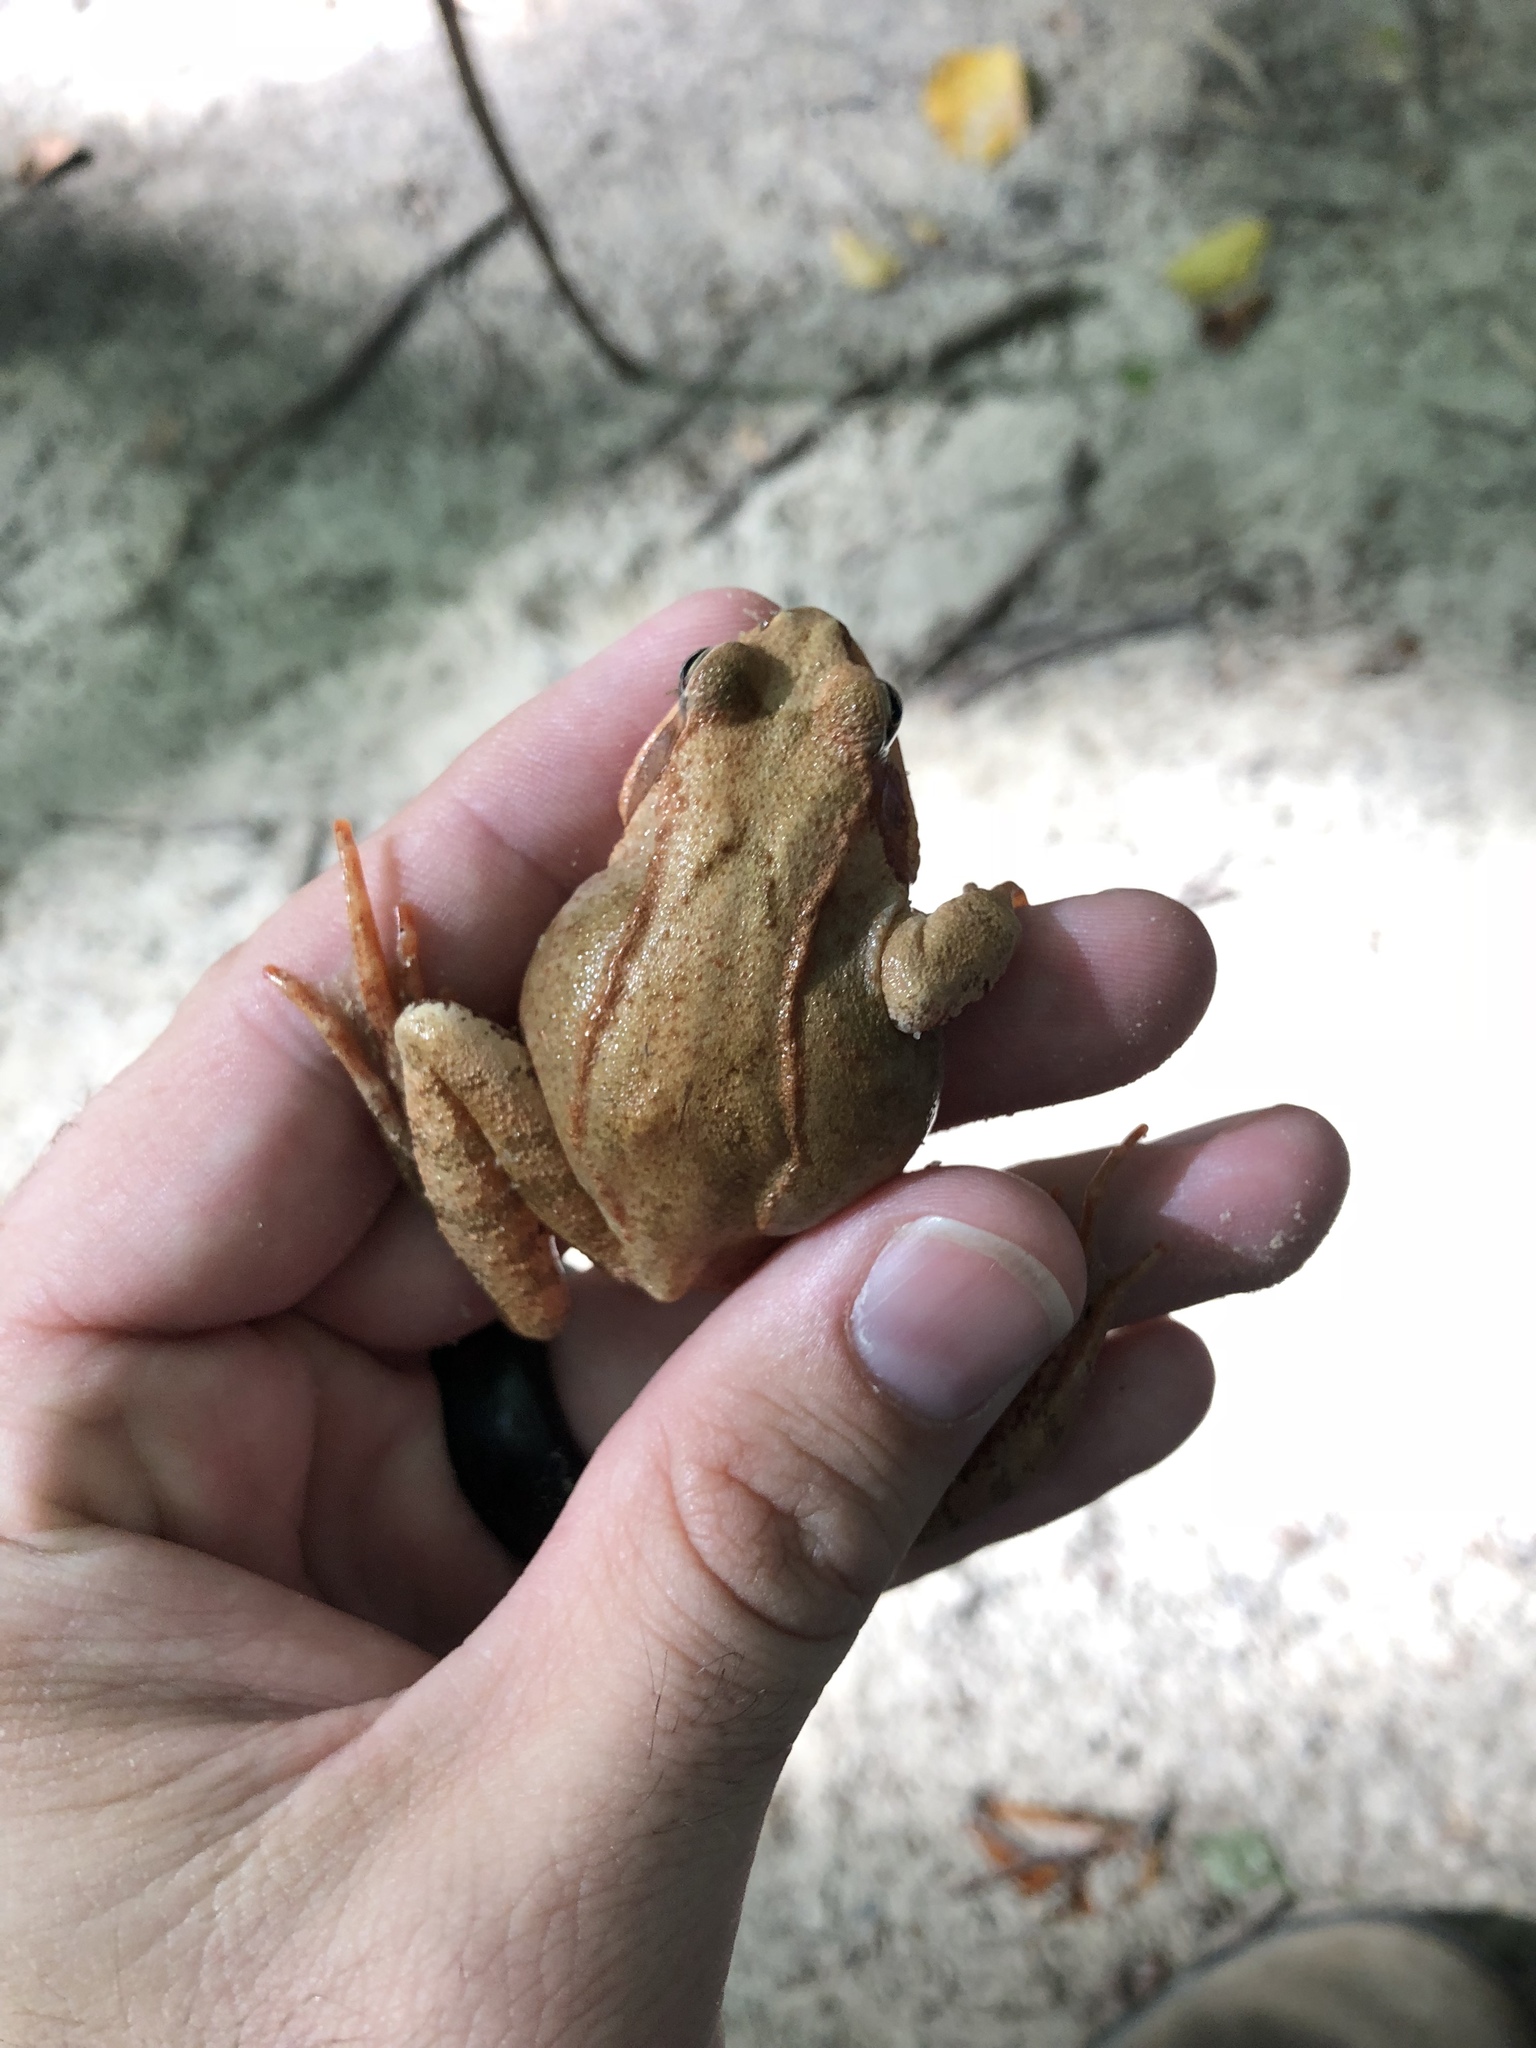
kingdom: Animalia
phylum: Chordata
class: Amphibia
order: Anura
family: Ranidae
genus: Rana
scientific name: Rana temporaria
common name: Common frog
